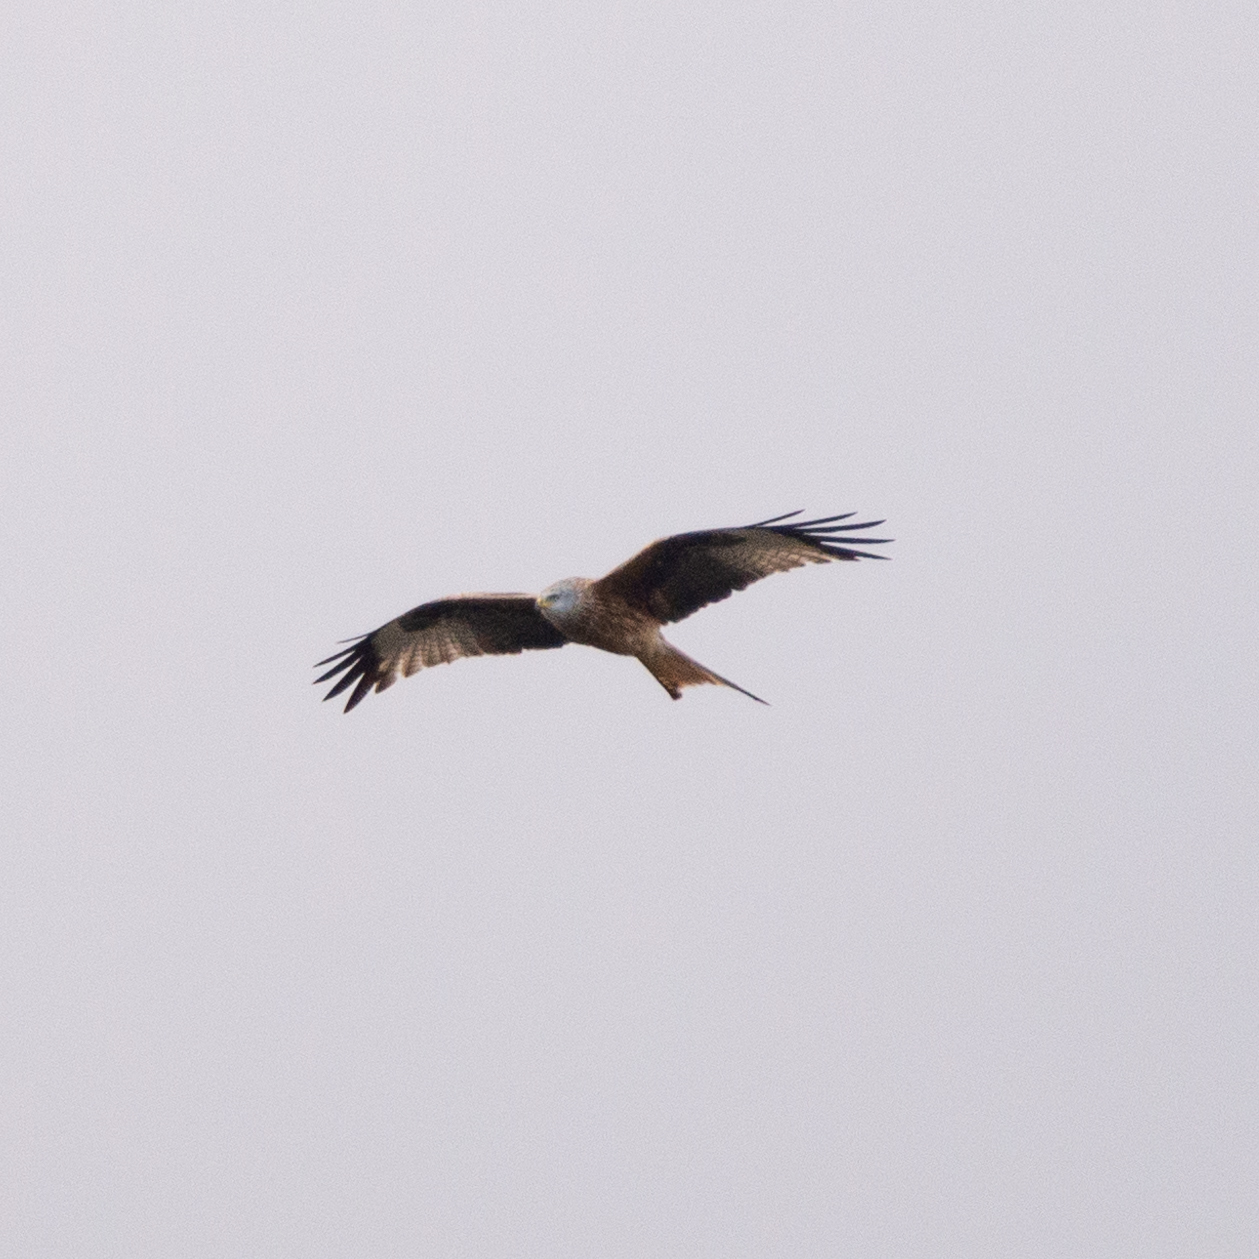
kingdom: Animalia
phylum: Chordata
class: Aves
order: Accipitriformes
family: Accipitridae
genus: Milvus
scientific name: Milvus milvus
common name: Red kite
